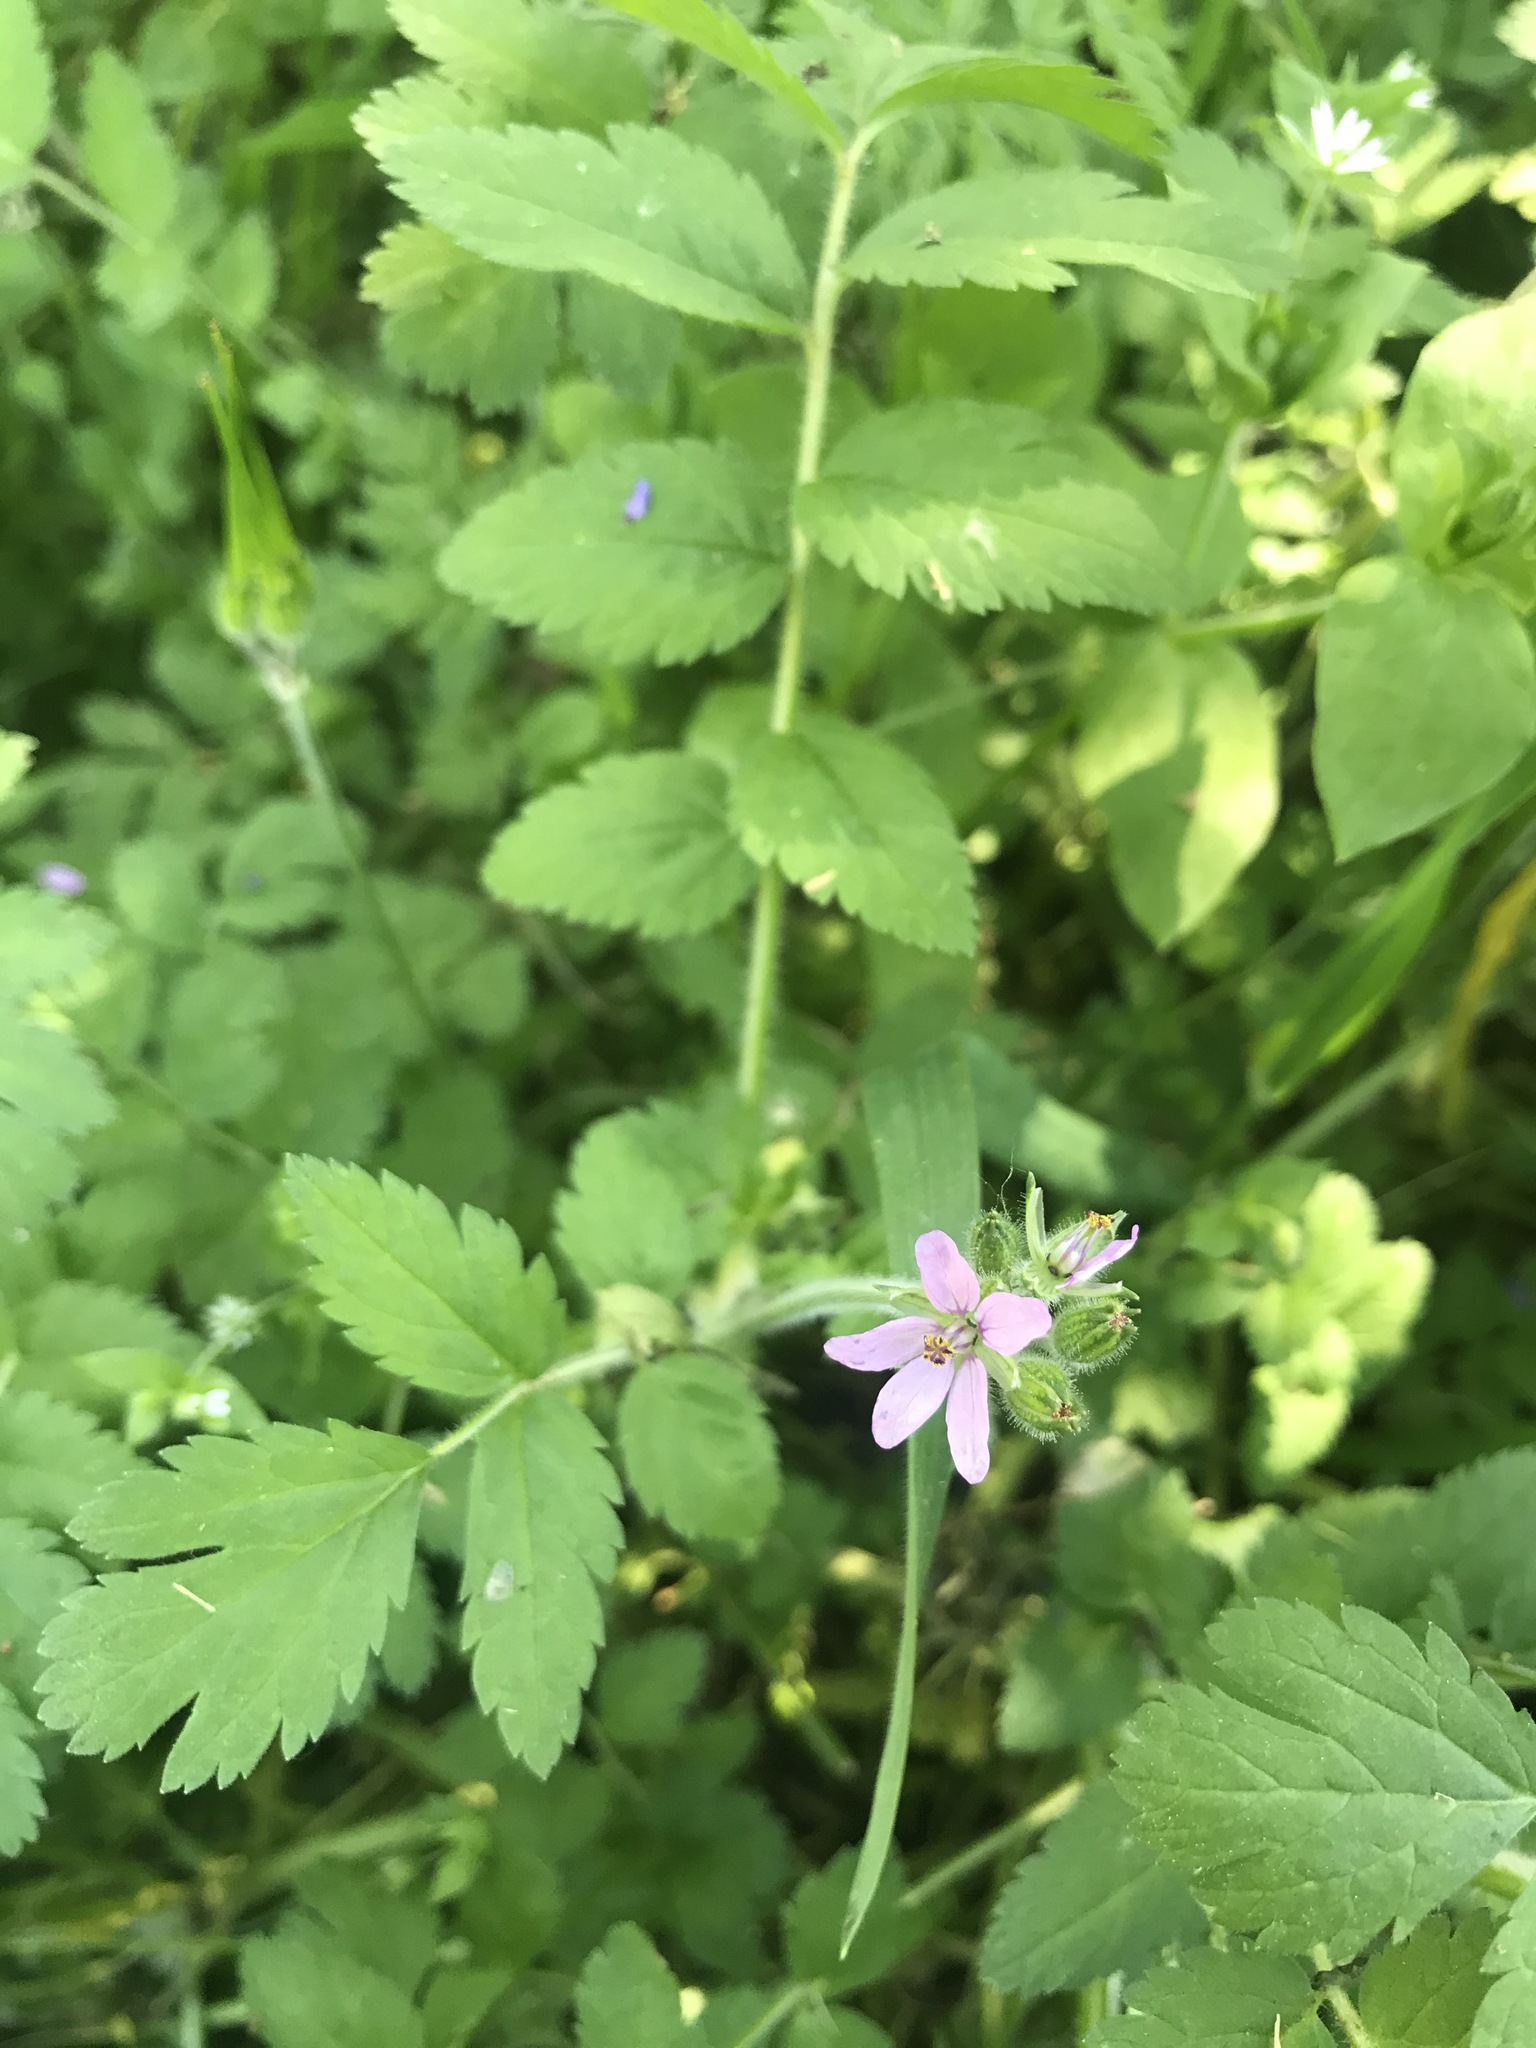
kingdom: Plantae
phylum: Tracheophyta
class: Magnoliopsida
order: Geraniales
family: Geraniaceae
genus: Erodium
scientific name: Erodium moschatum
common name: Musk stork's-bill
